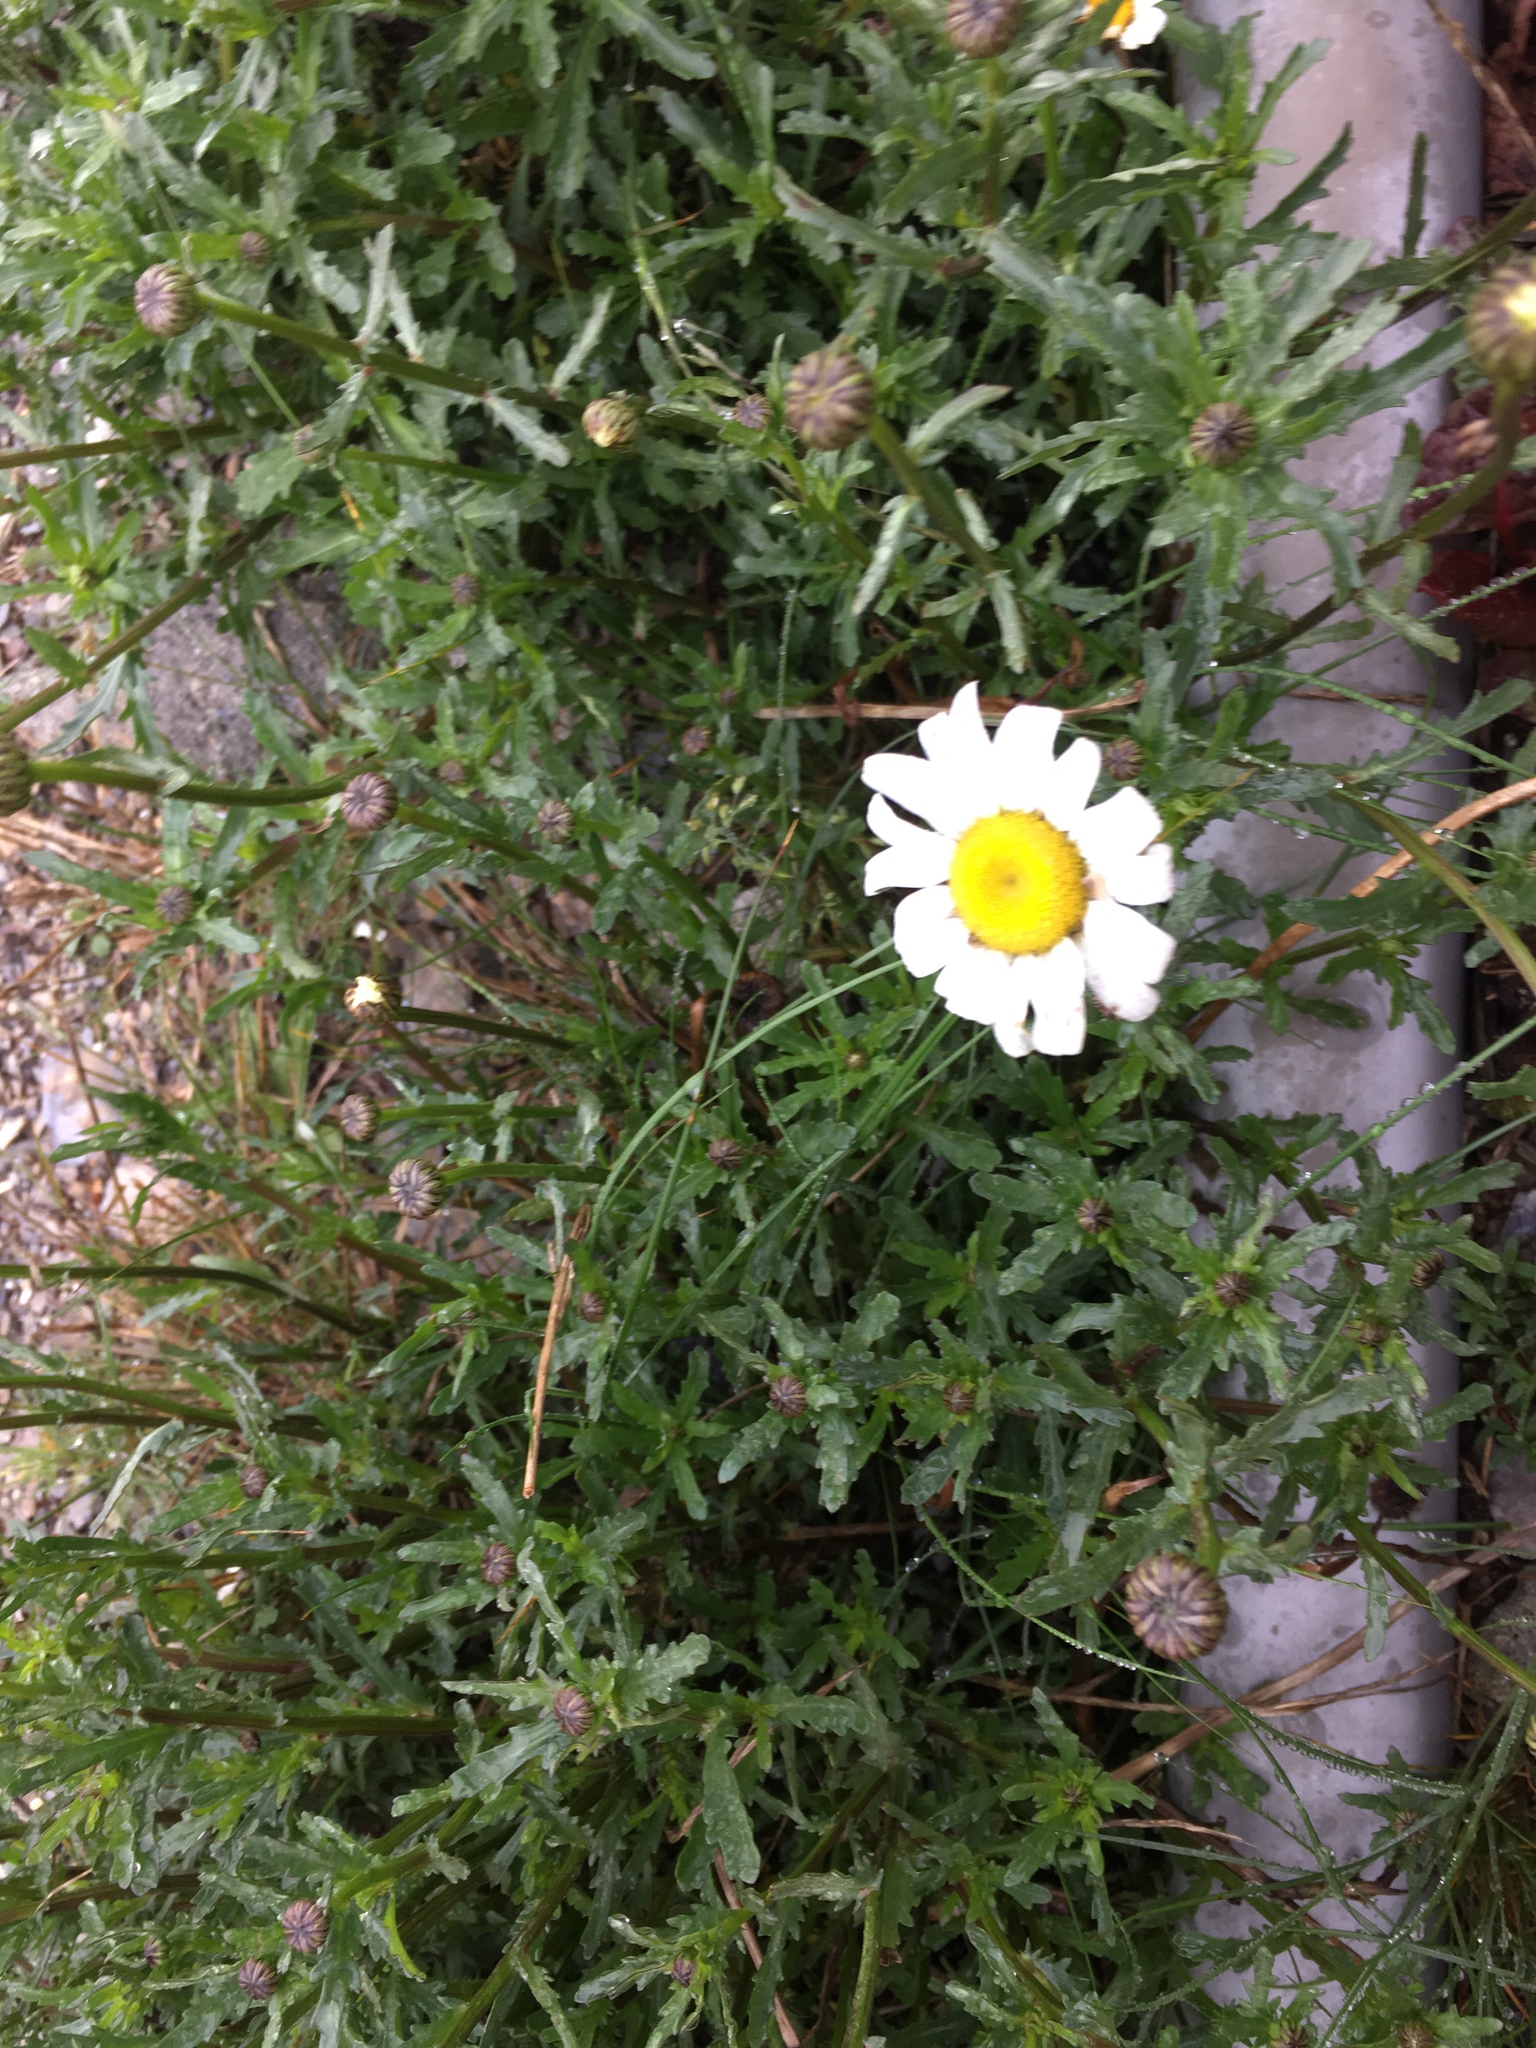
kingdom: Plantae
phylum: Tracheophyta
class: Magnoliopsida
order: Asterales
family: Asteraceae
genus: Leucanthemum
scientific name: Leucanthemum vulgare
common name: Oxeye daisy
